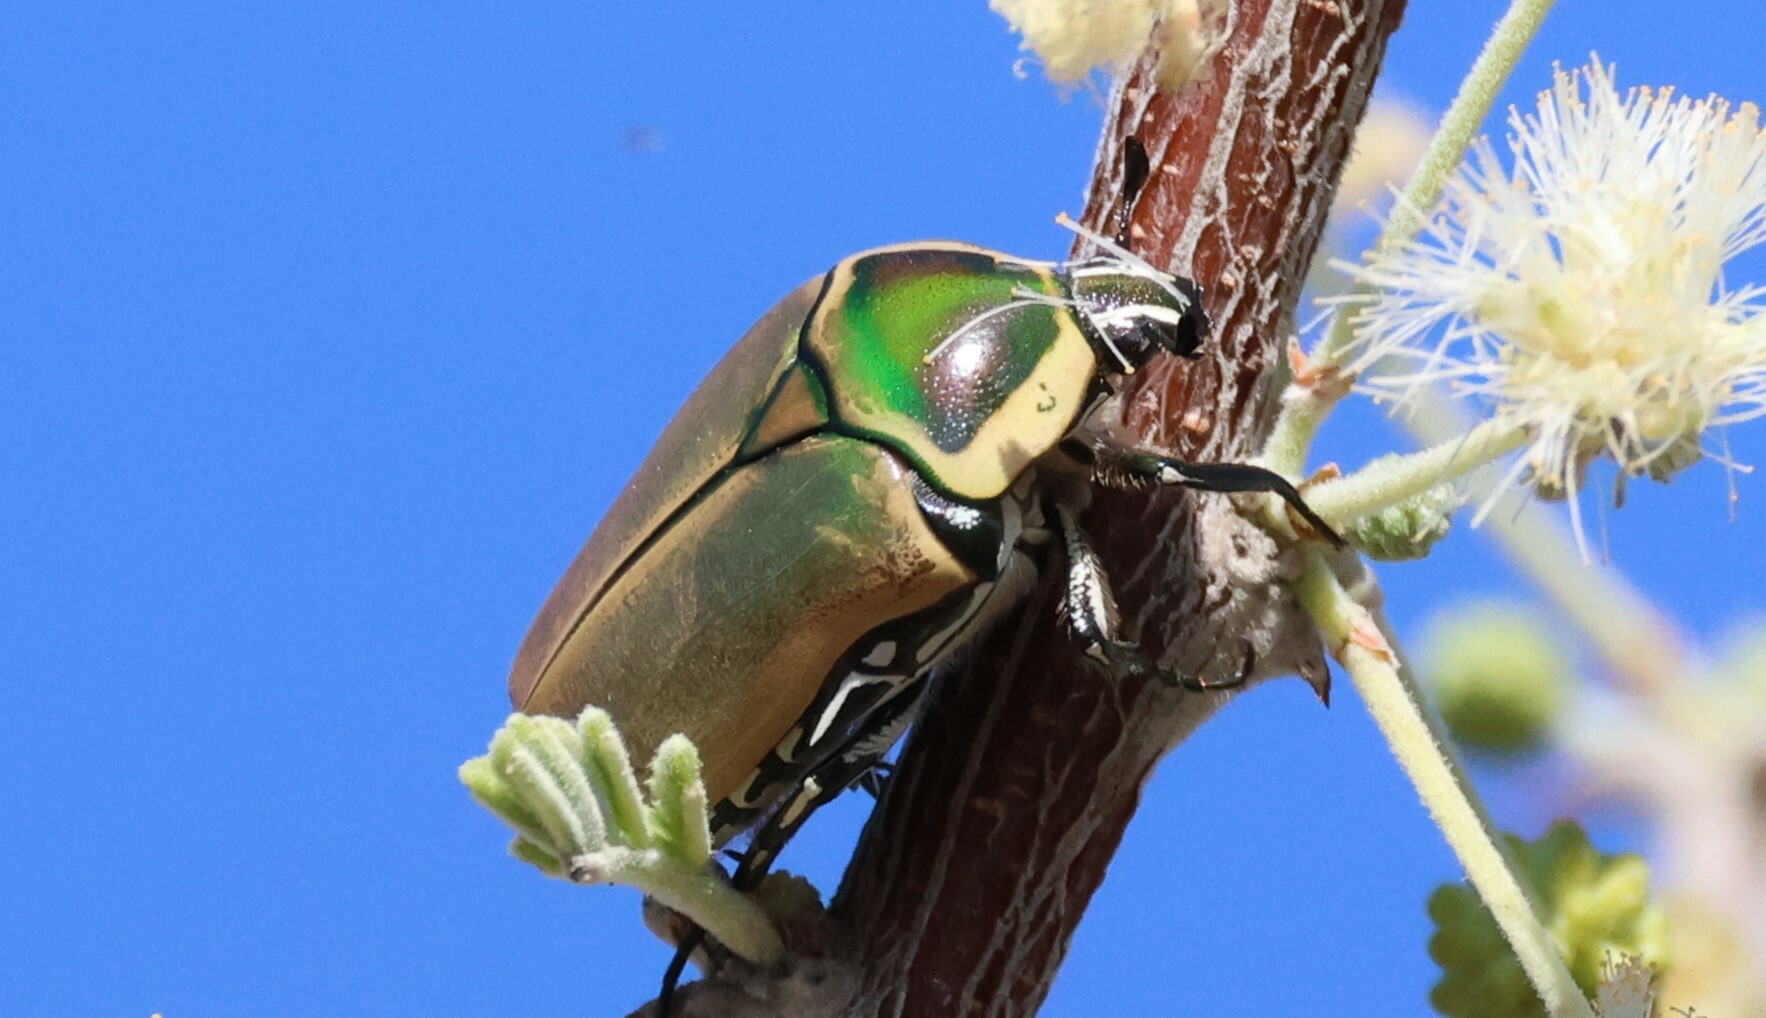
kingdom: Animalia
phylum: Arthropoda
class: Insecta
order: Coleoptera
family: Scarabaeidae
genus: Dischista
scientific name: Dischista cincta
